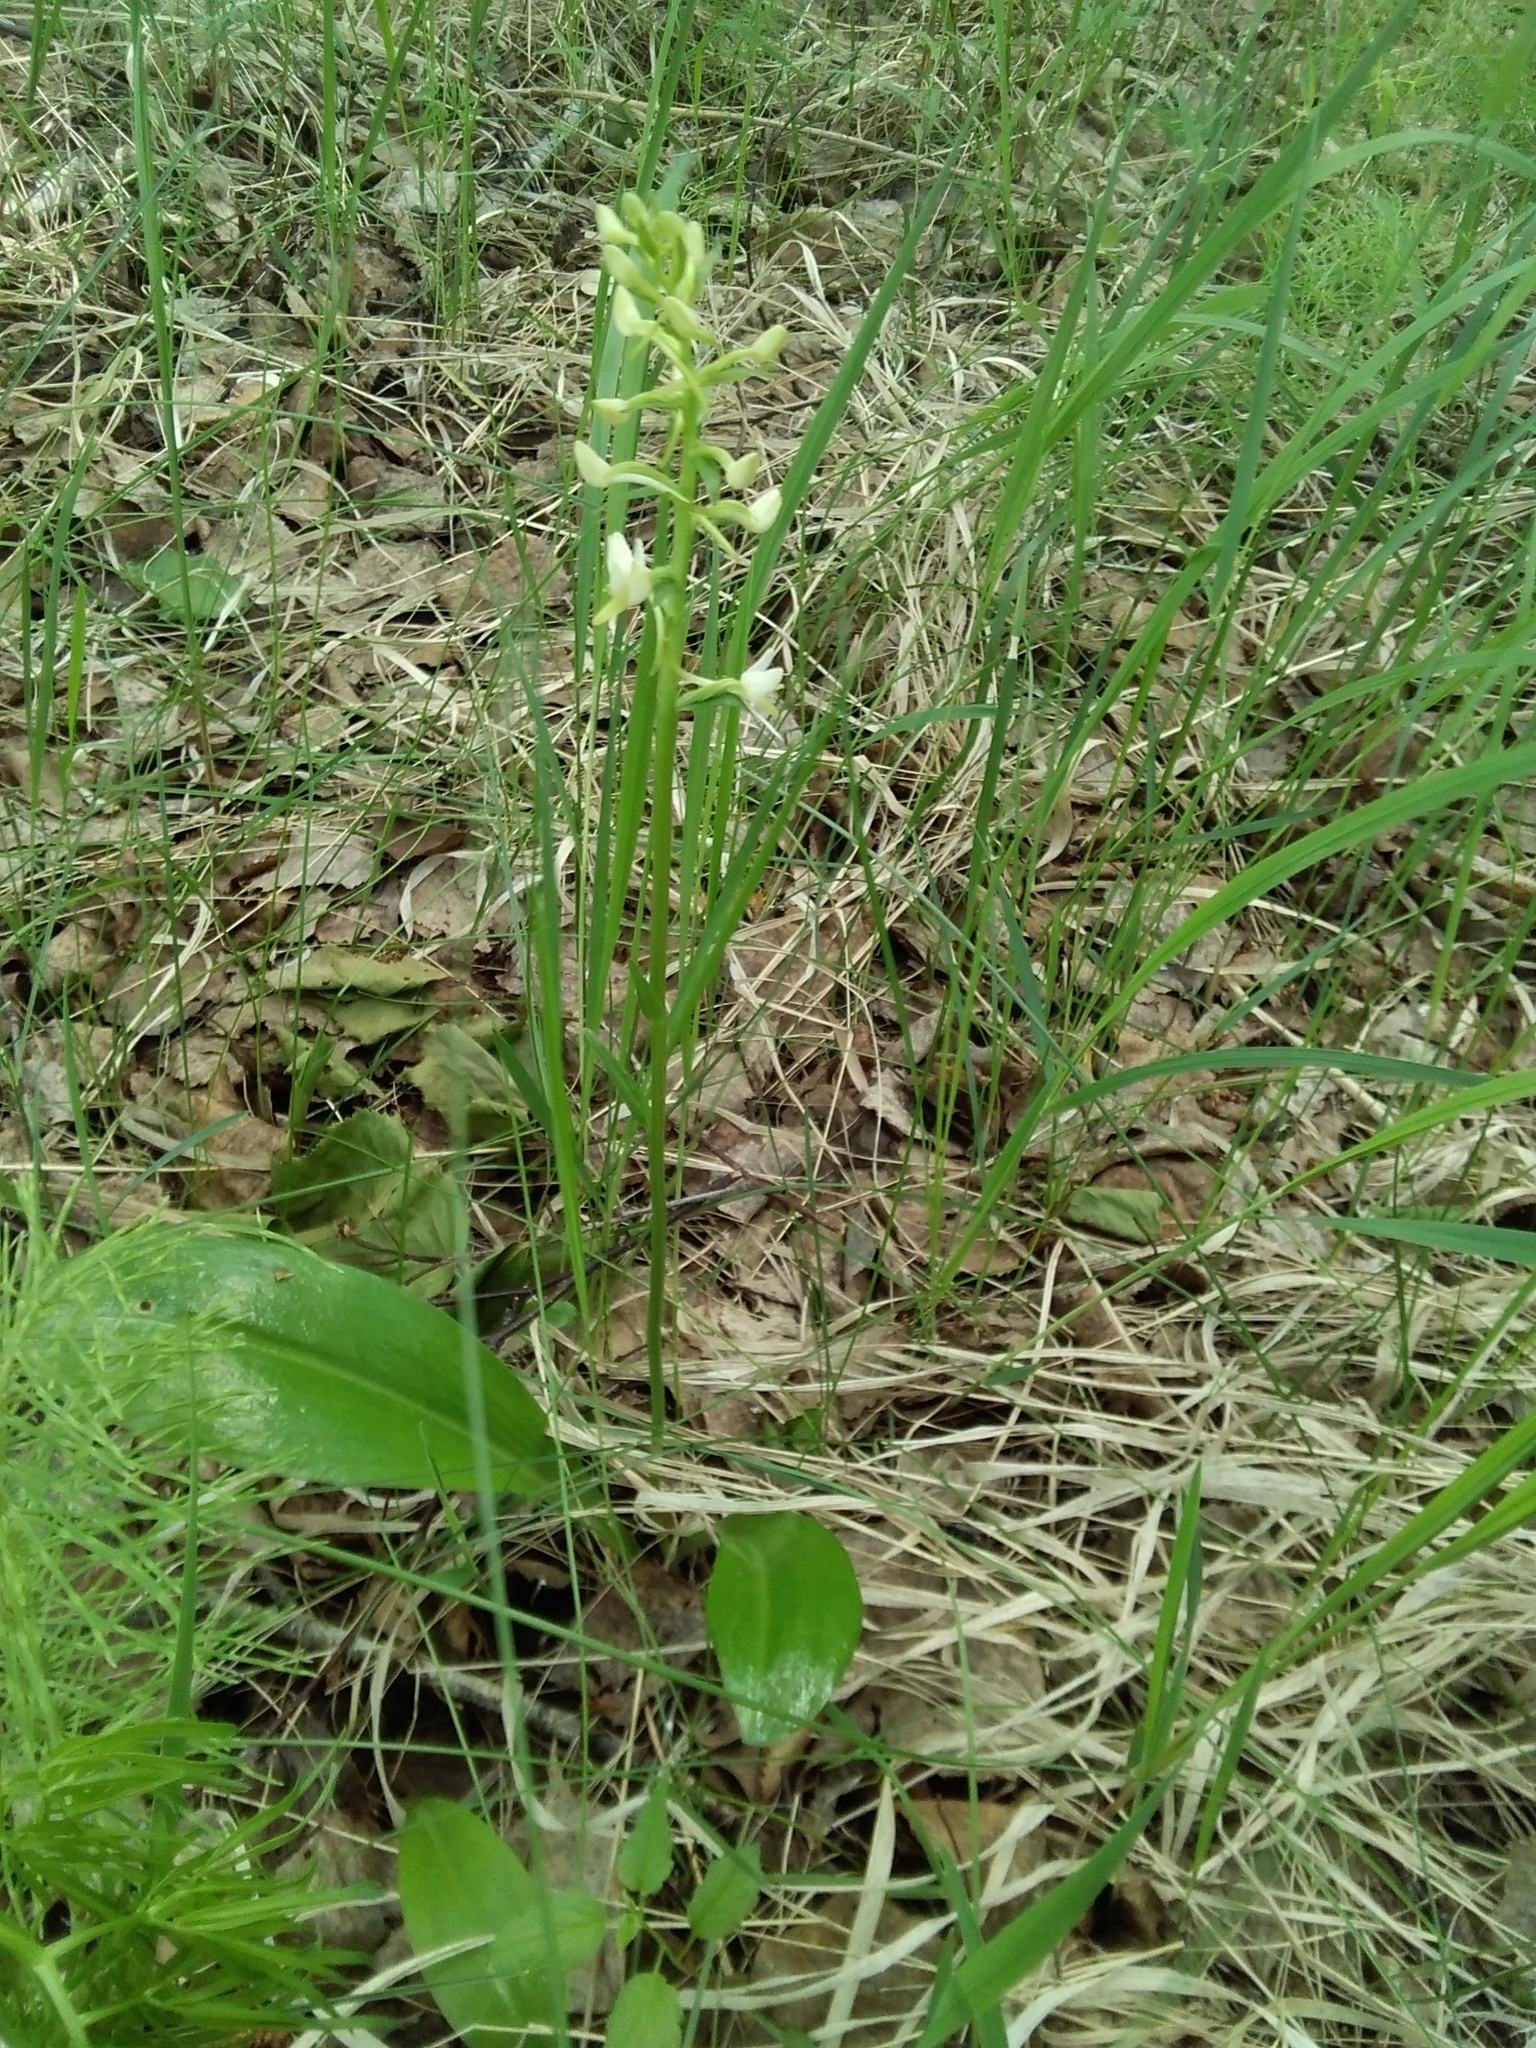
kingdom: Plantae
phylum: Tracheophyta
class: Liliopsida
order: Asparagales
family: Orchidaceae
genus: Platanthera
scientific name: Platanthera bifolia
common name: Lesser butterfly-orchid
